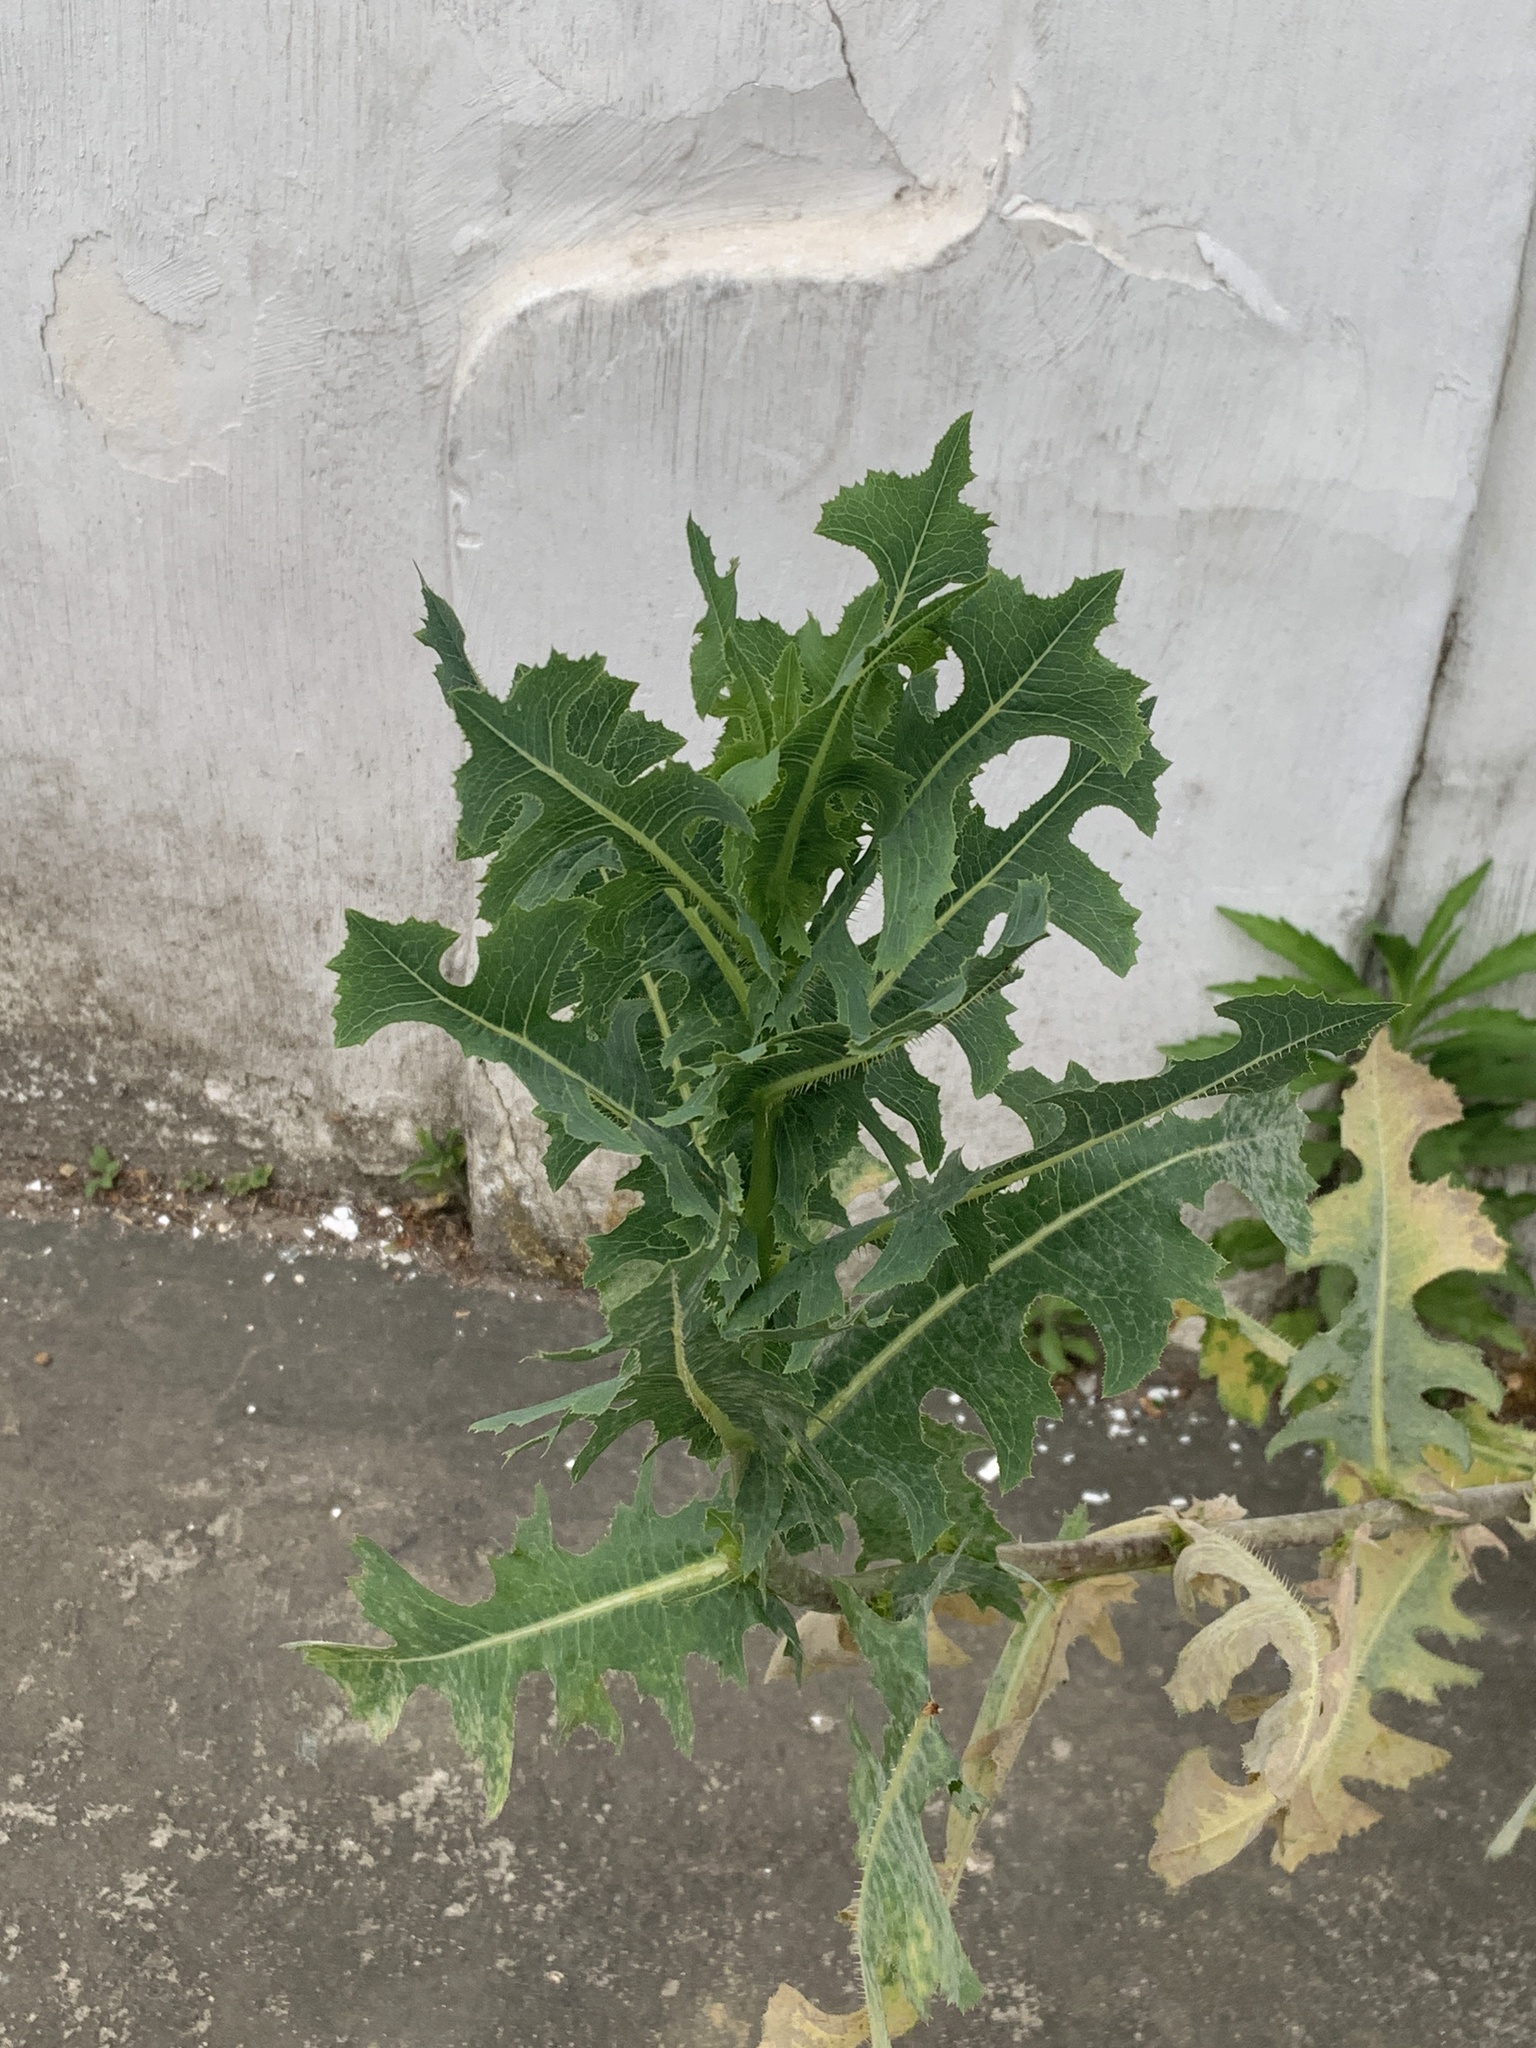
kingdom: Plantae
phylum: Tracheophyta
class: Magnoliopsida
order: Asterales
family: Asteraceae
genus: Lactuca
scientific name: Lactuca serriola
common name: Prickly lettuce
